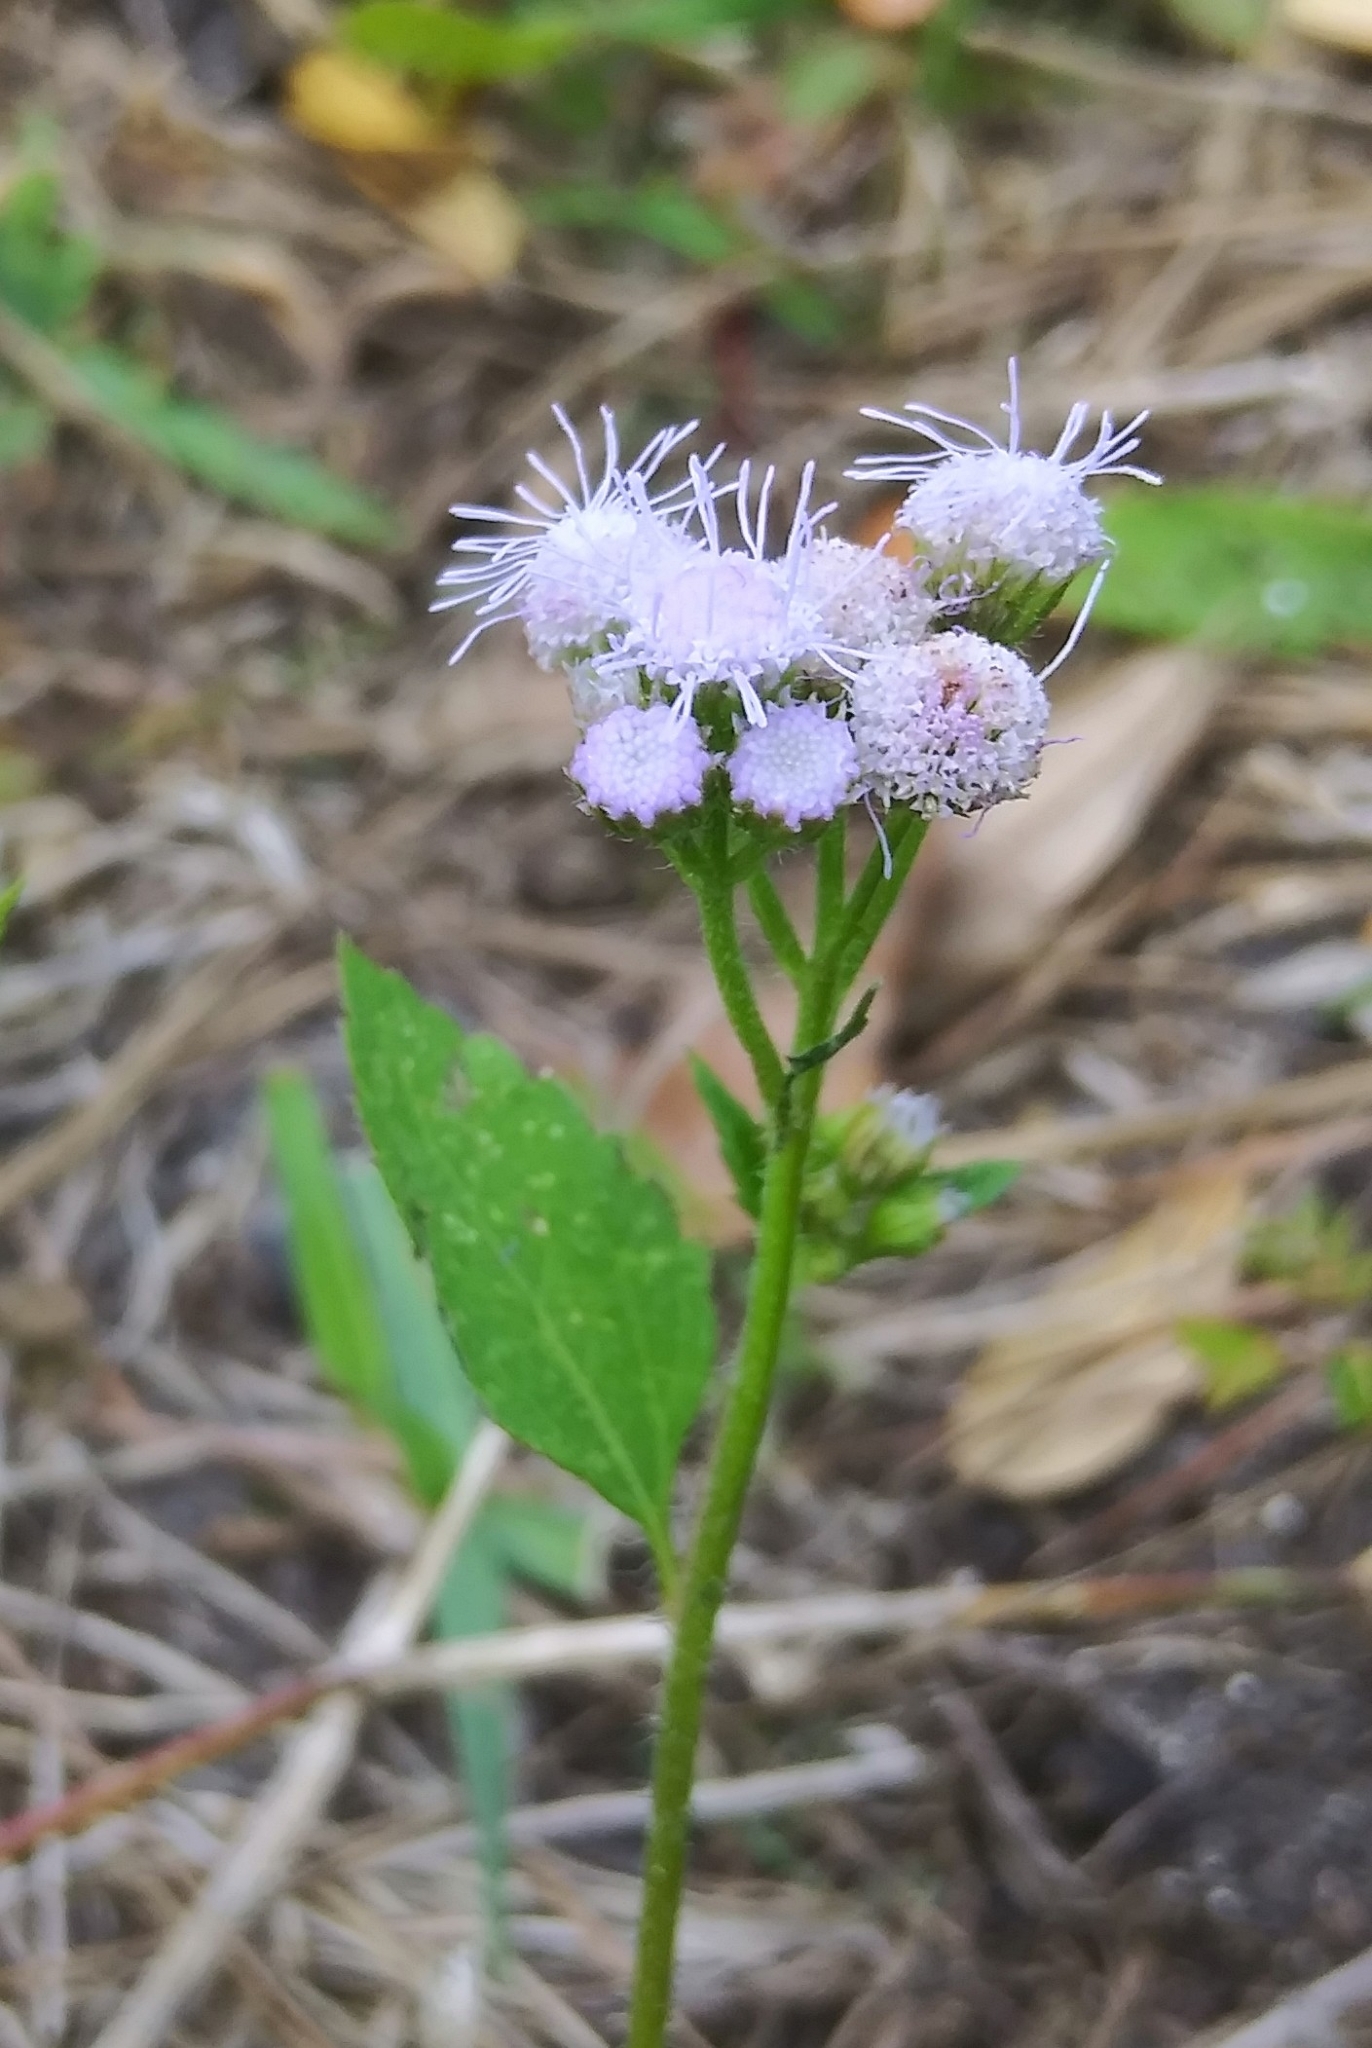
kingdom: Plantae
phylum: Tracheophyta
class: Magnoliopsida
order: Asterales
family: Asteraceae
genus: Ageratum
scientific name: Ageratum houstonianum
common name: Bluemink
